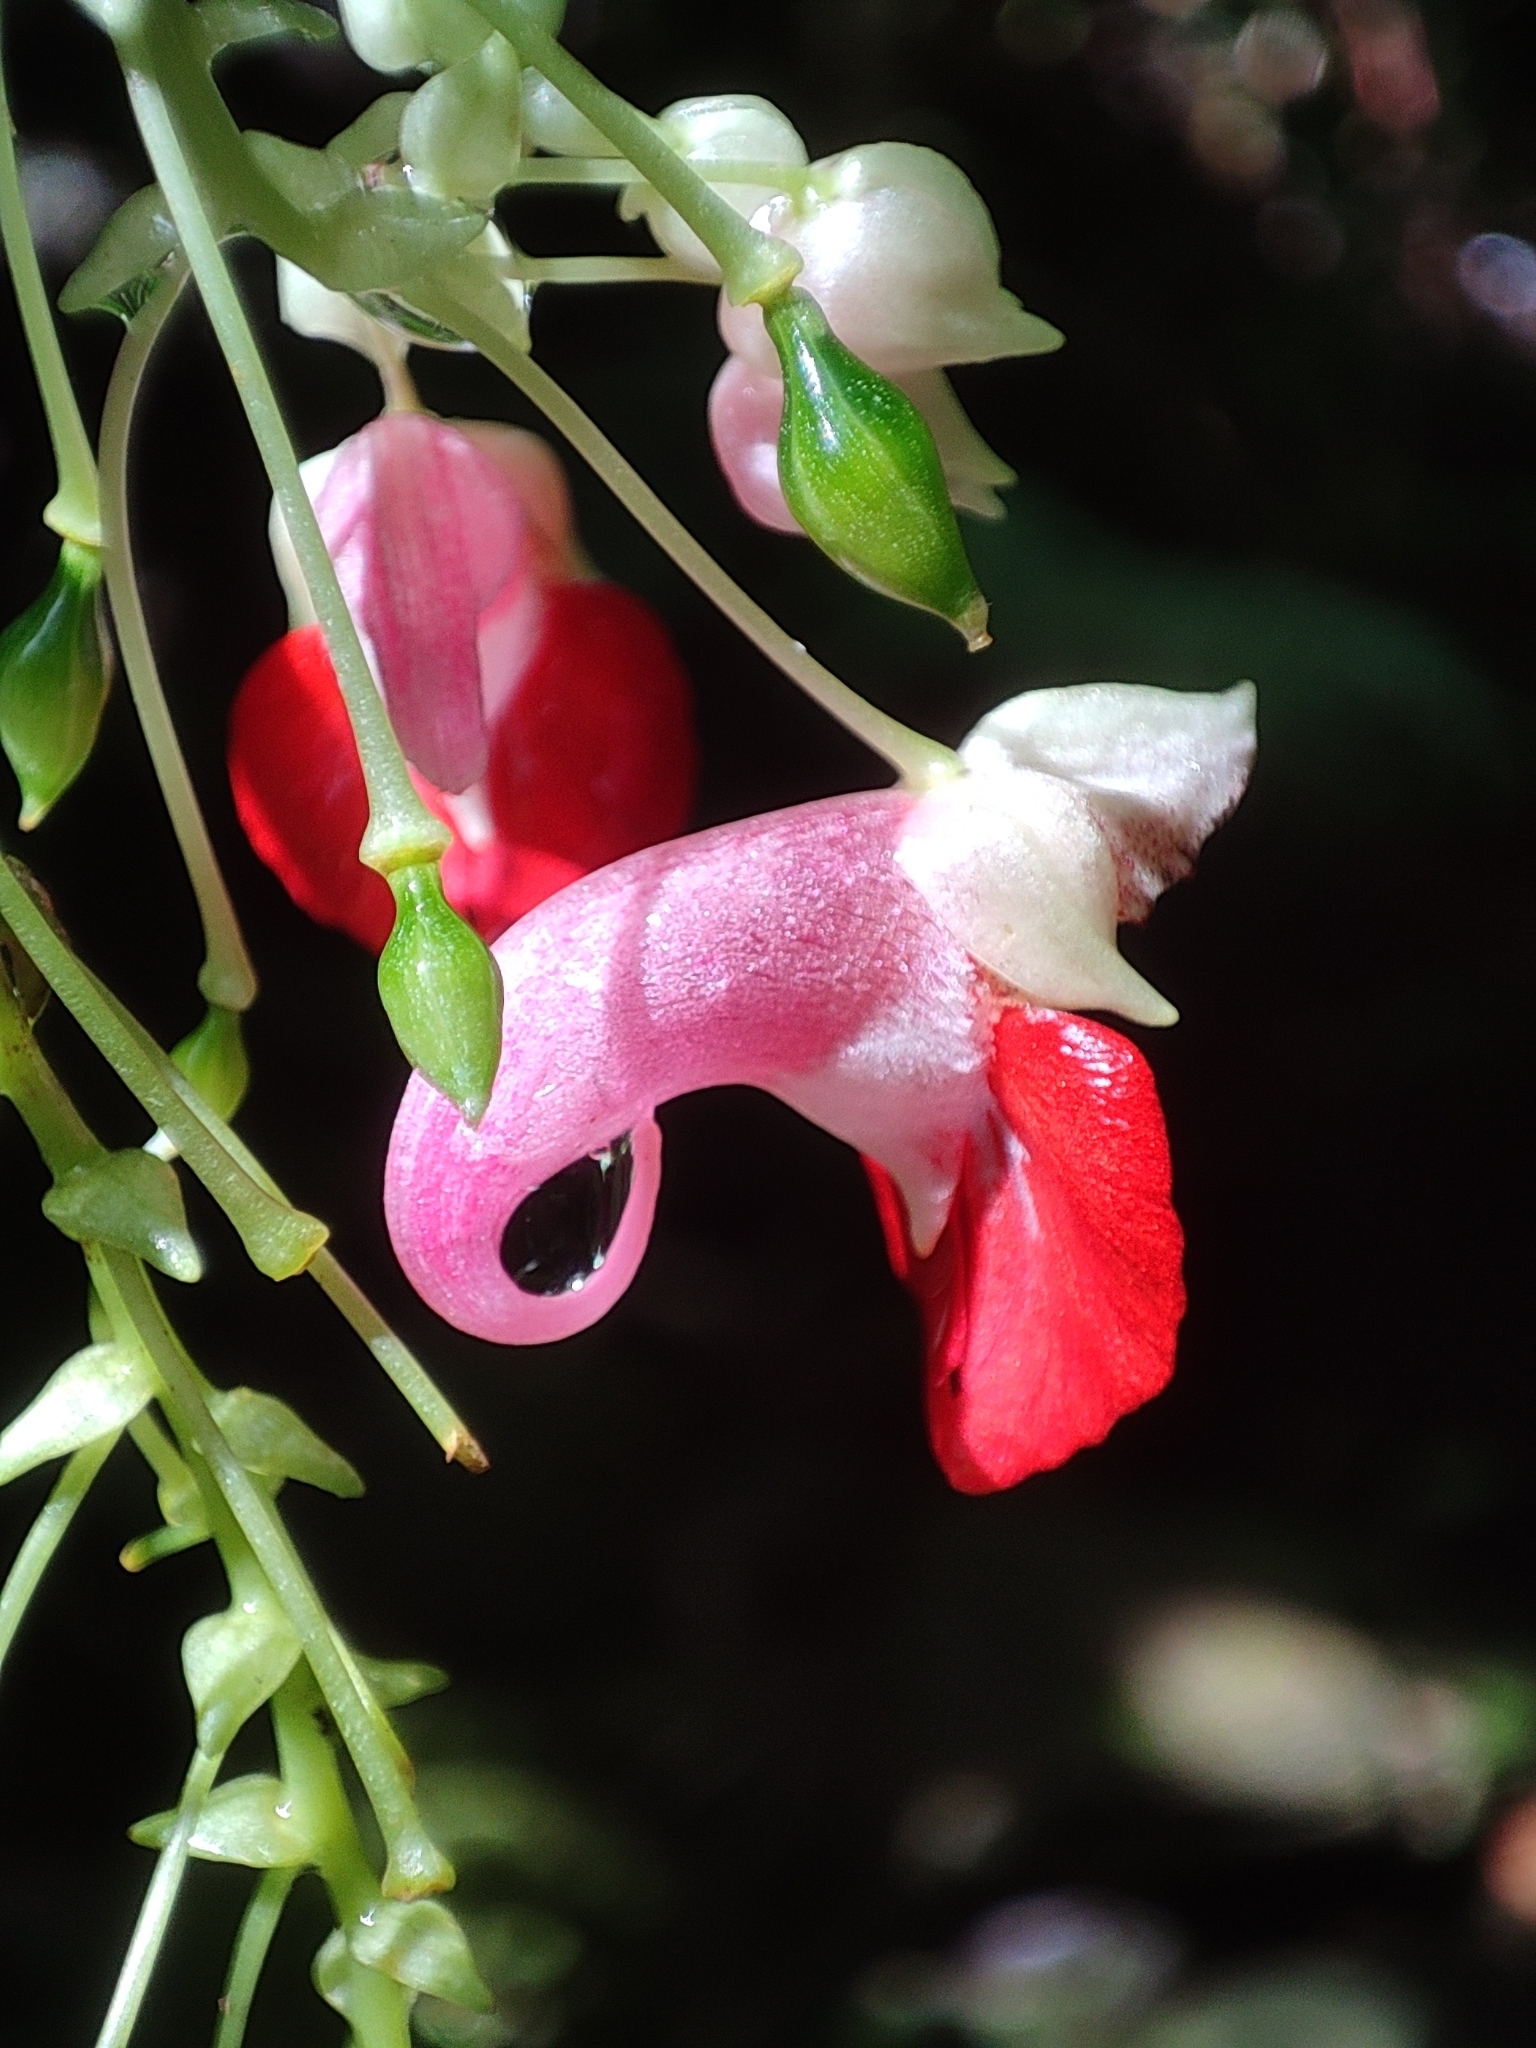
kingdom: Plantae
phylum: Tracheophyta
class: Magnoliopsida
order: Ericales
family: Balsaminaceae
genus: Impatiens
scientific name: Impatiens platyadena
